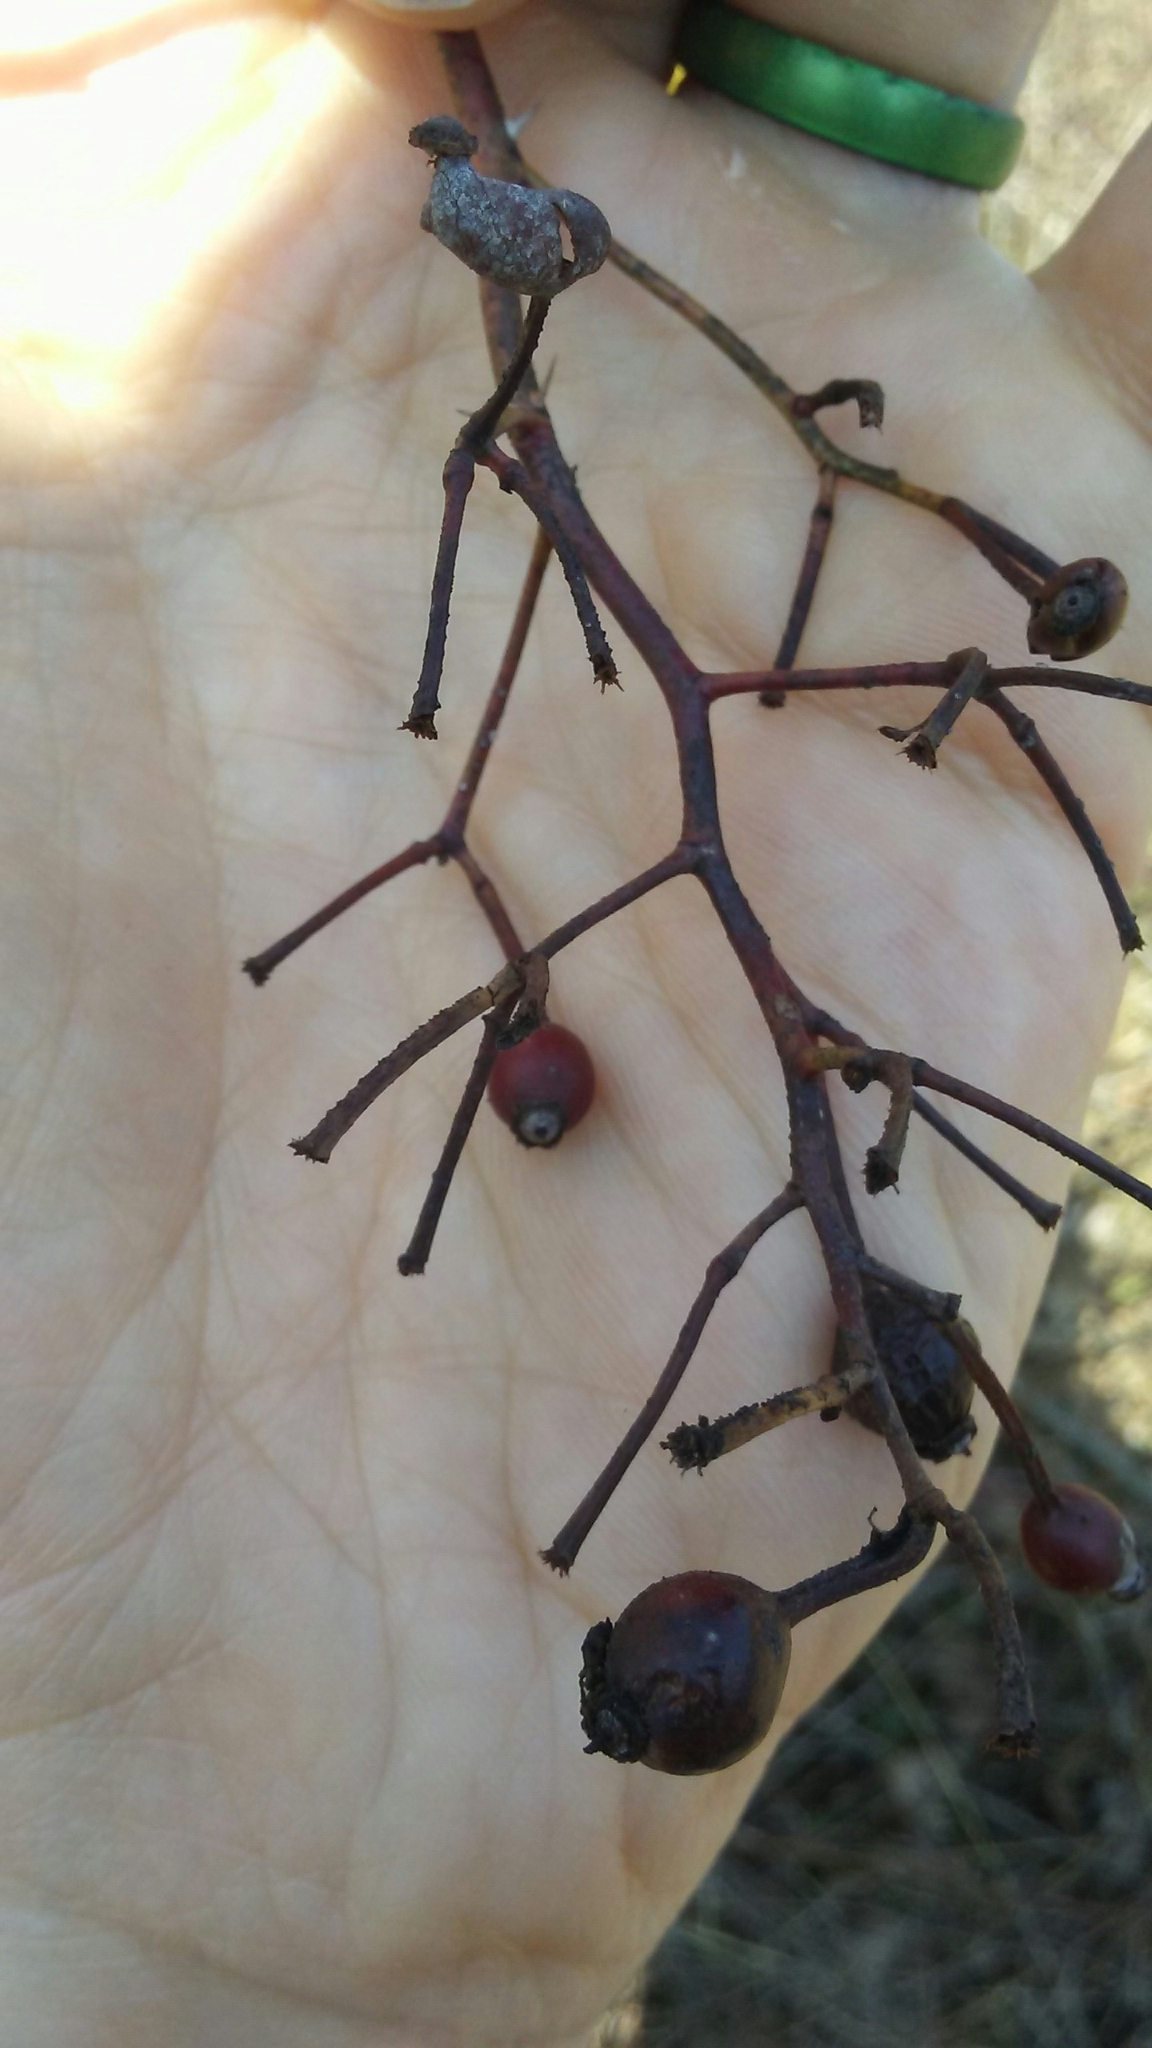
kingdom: Plantae
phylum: Tracheophyta
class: Magnoliopsida
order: Rosales
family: Rosaceae
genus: Rosa
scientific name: Rosa multiflora
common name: Multiflora rose
